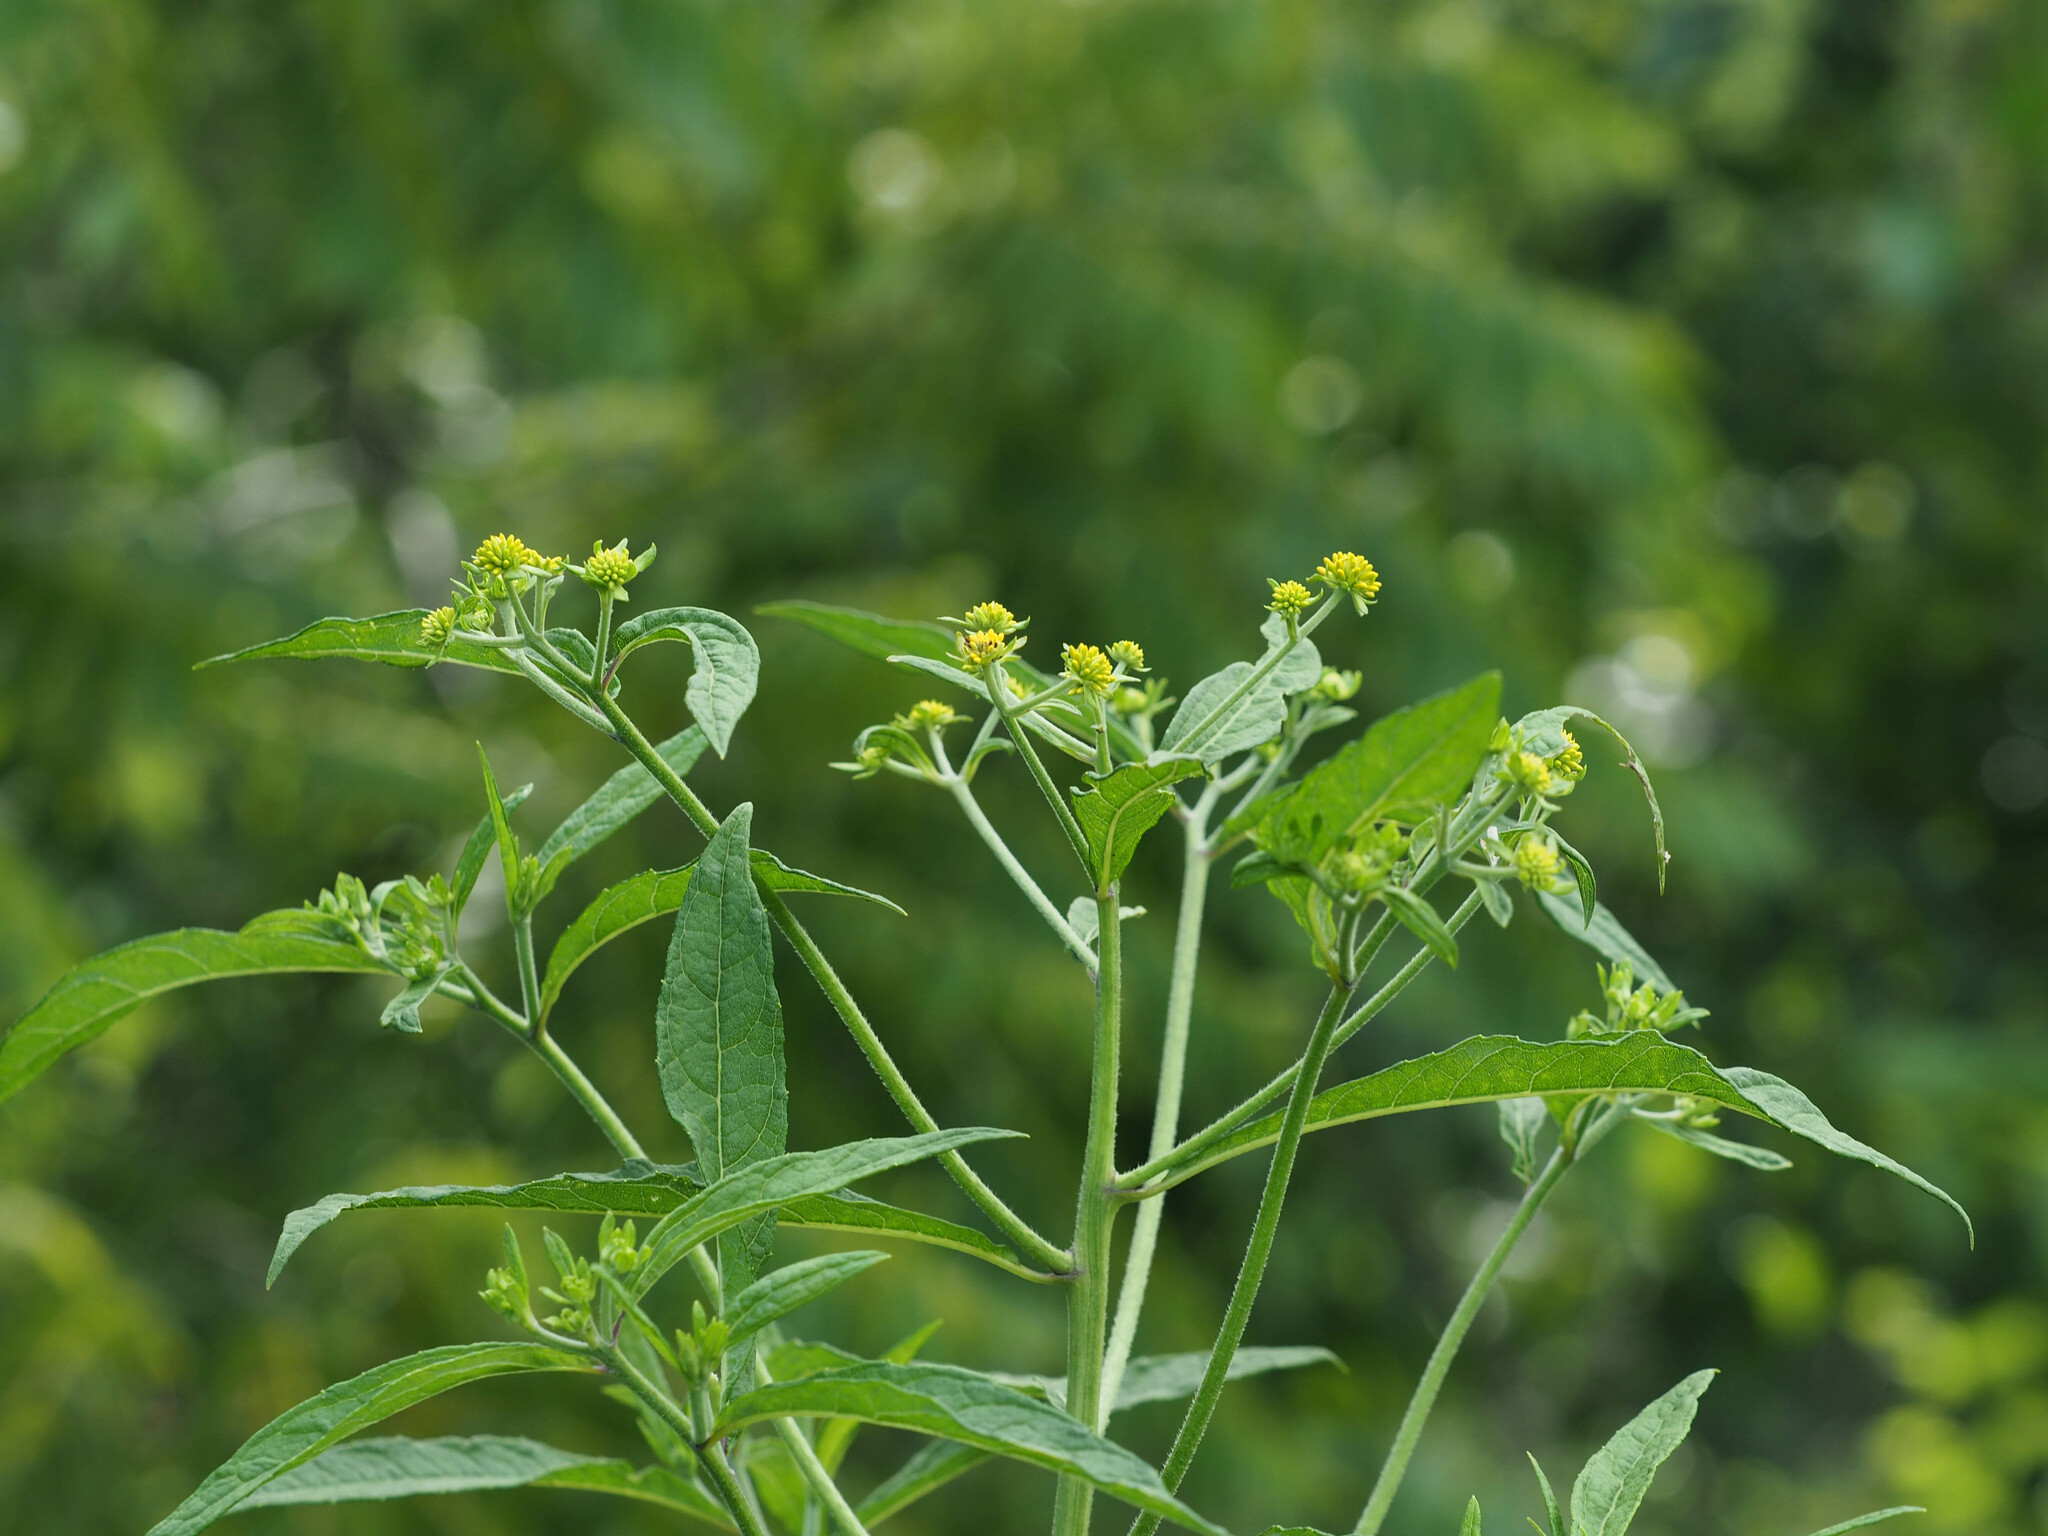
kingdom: Plantae
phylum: Tracheophyta
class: Magnoliopsida
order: Asterales
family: Asteraceae
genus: Verbesina
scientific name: Verbesina alternifolia
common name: Wingstem
